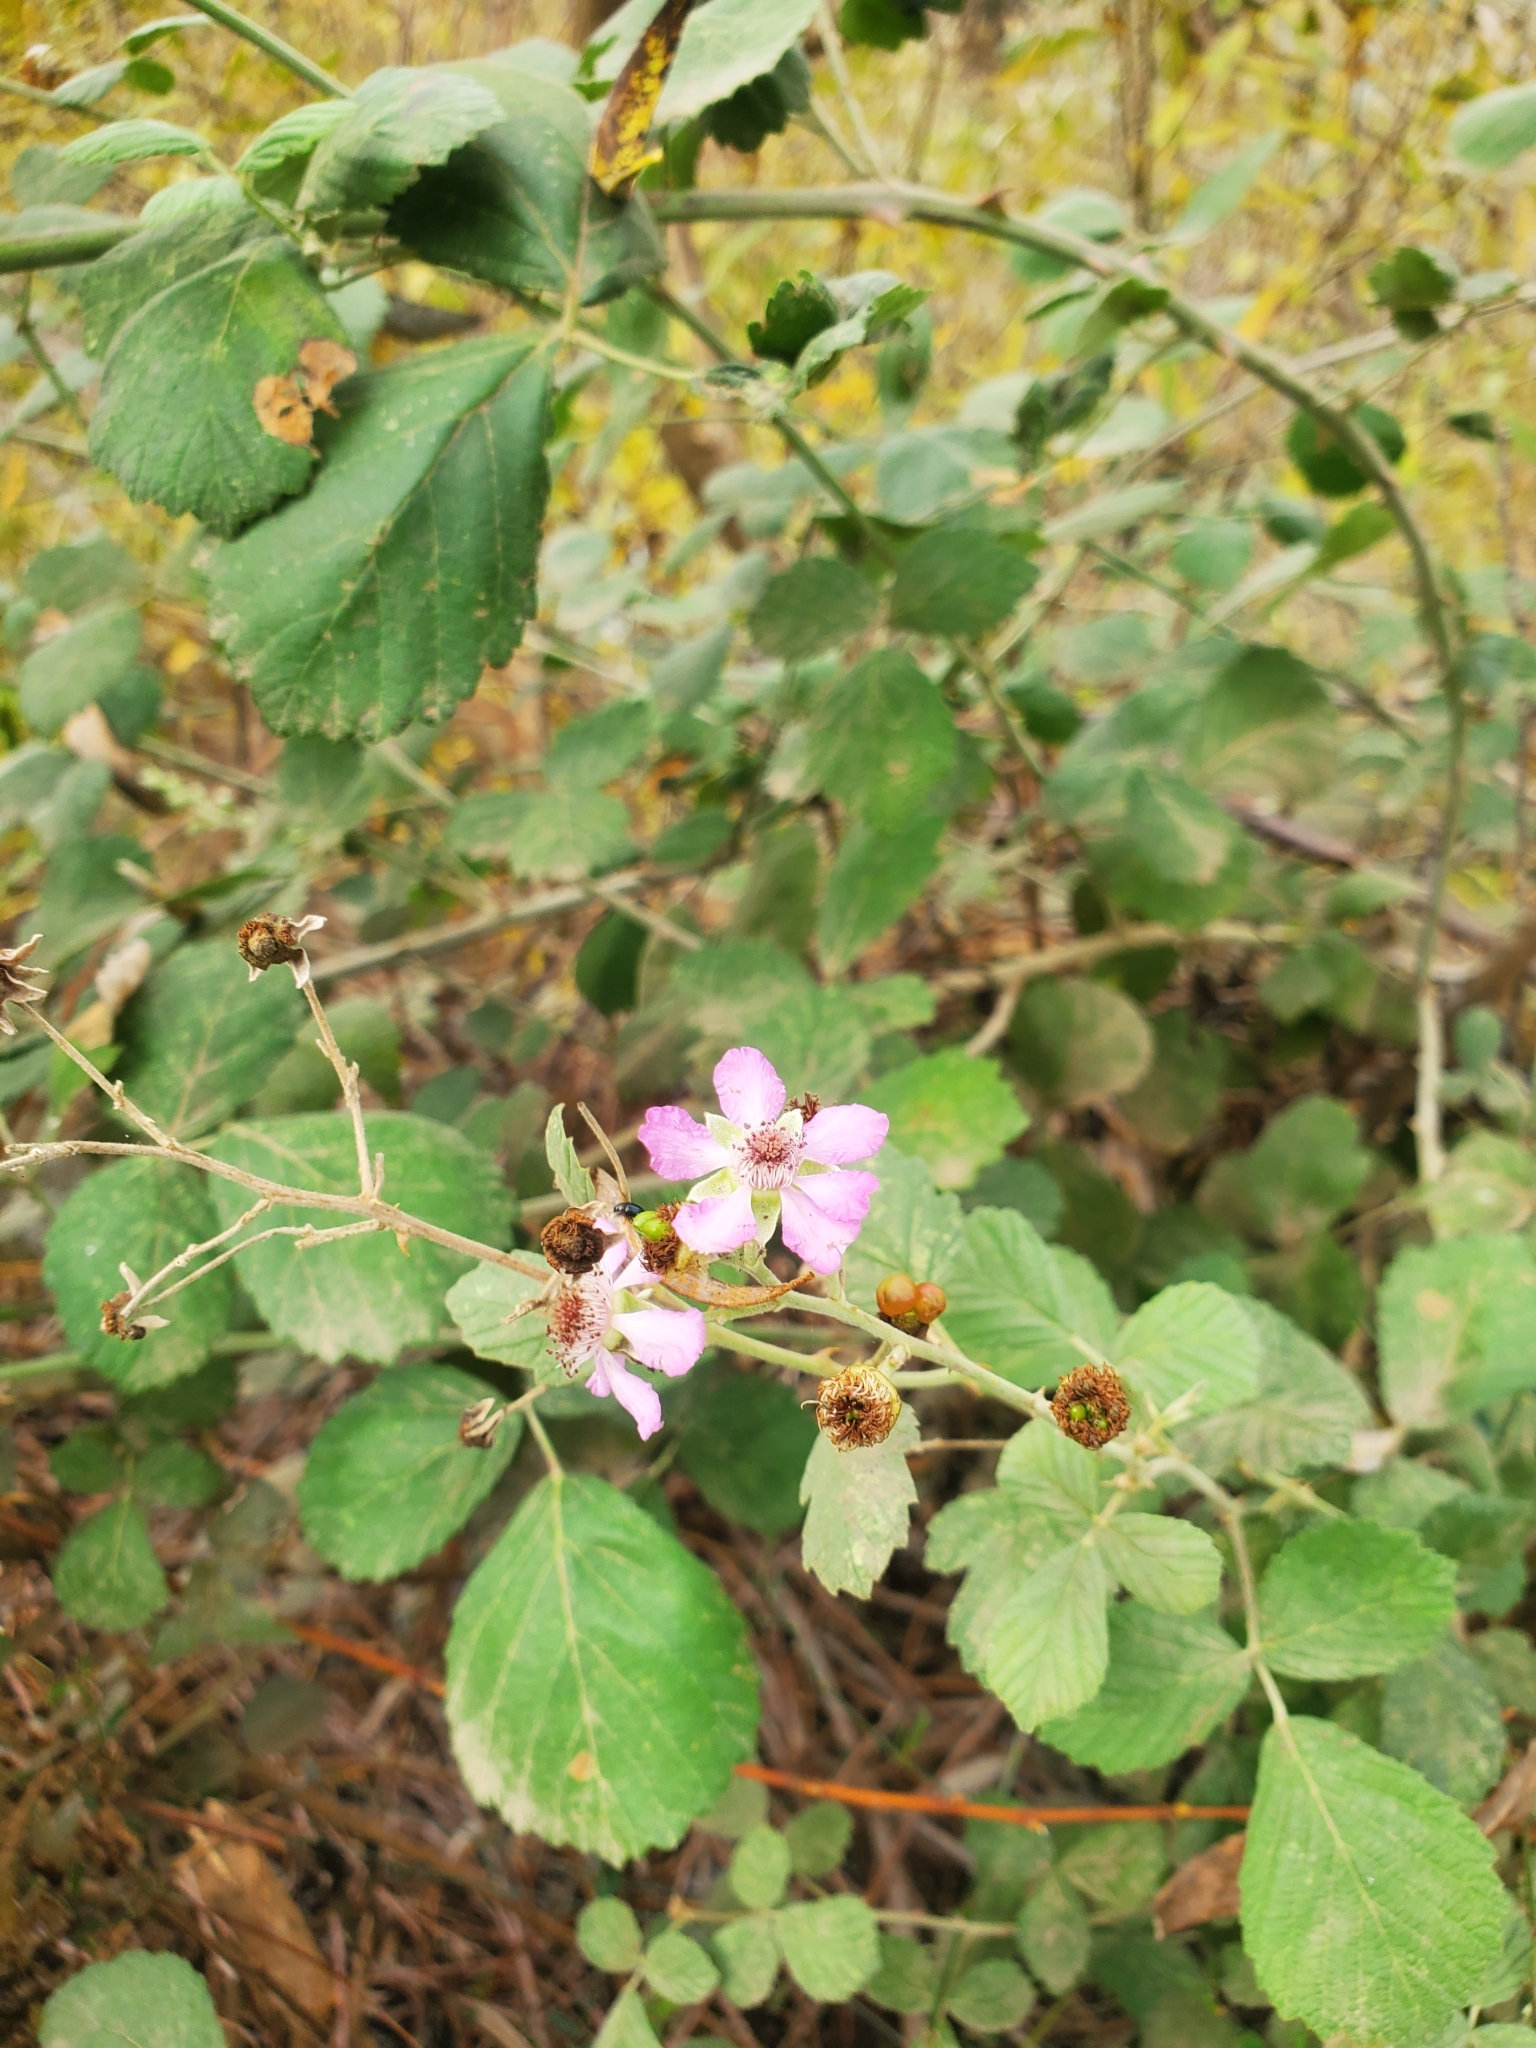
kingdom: Plantae
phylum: Tracheophyta
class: Magnoliopsida
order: Rosales
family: Rosaceae
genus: Rubus
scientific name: Rubus sanctus
